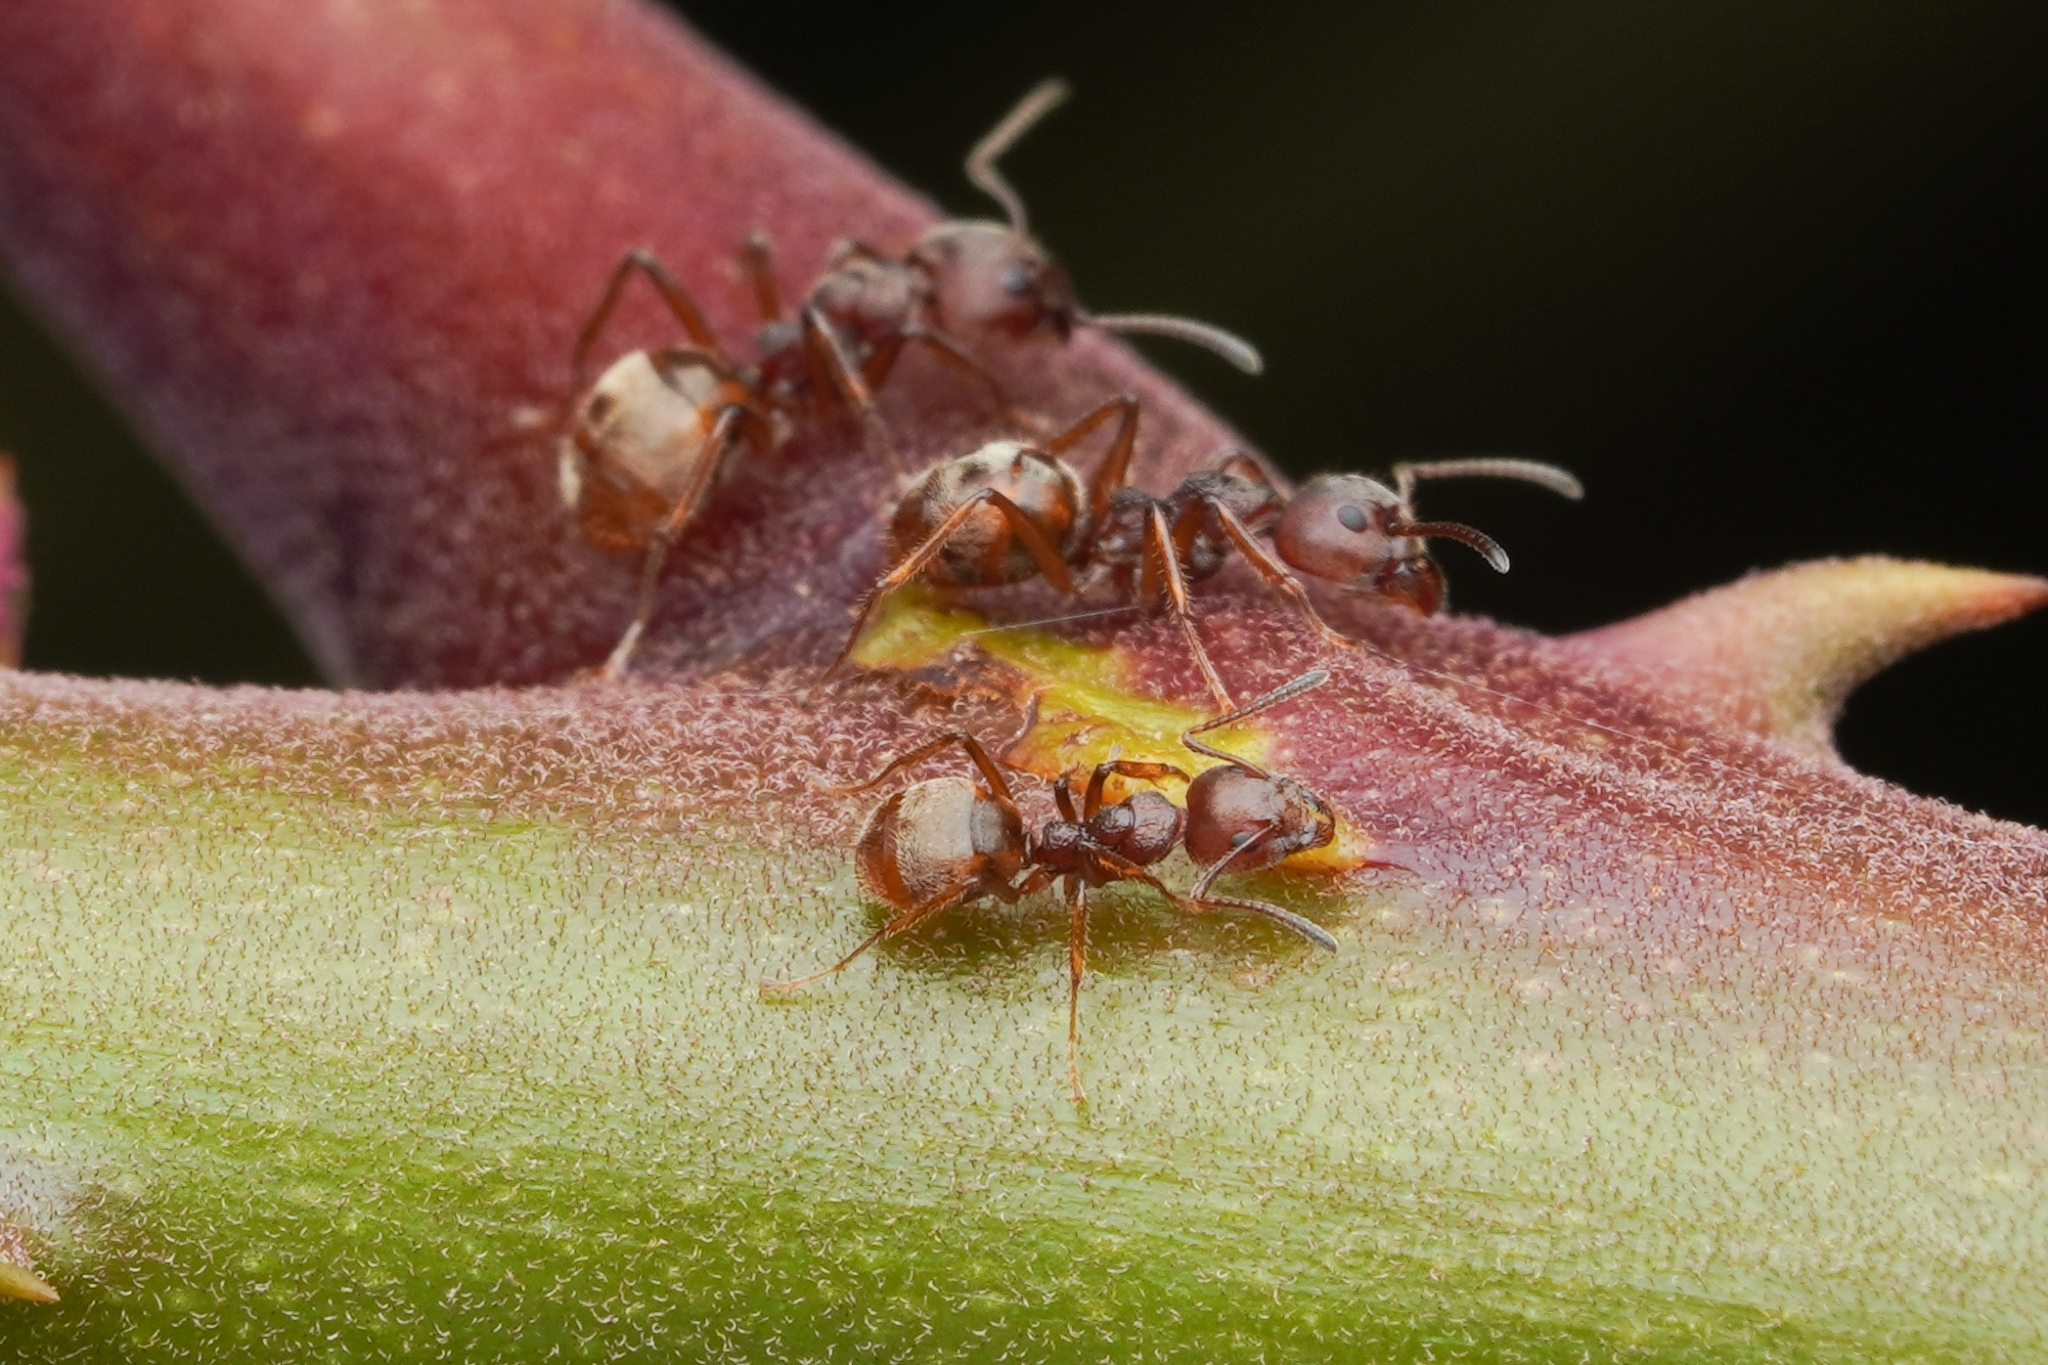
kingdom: Animalia
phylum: Arthropoda
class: Insecta
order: Hymenoptera
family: Formicidae
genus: Dolichoderus
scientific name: Dolichoderus thoracicus
